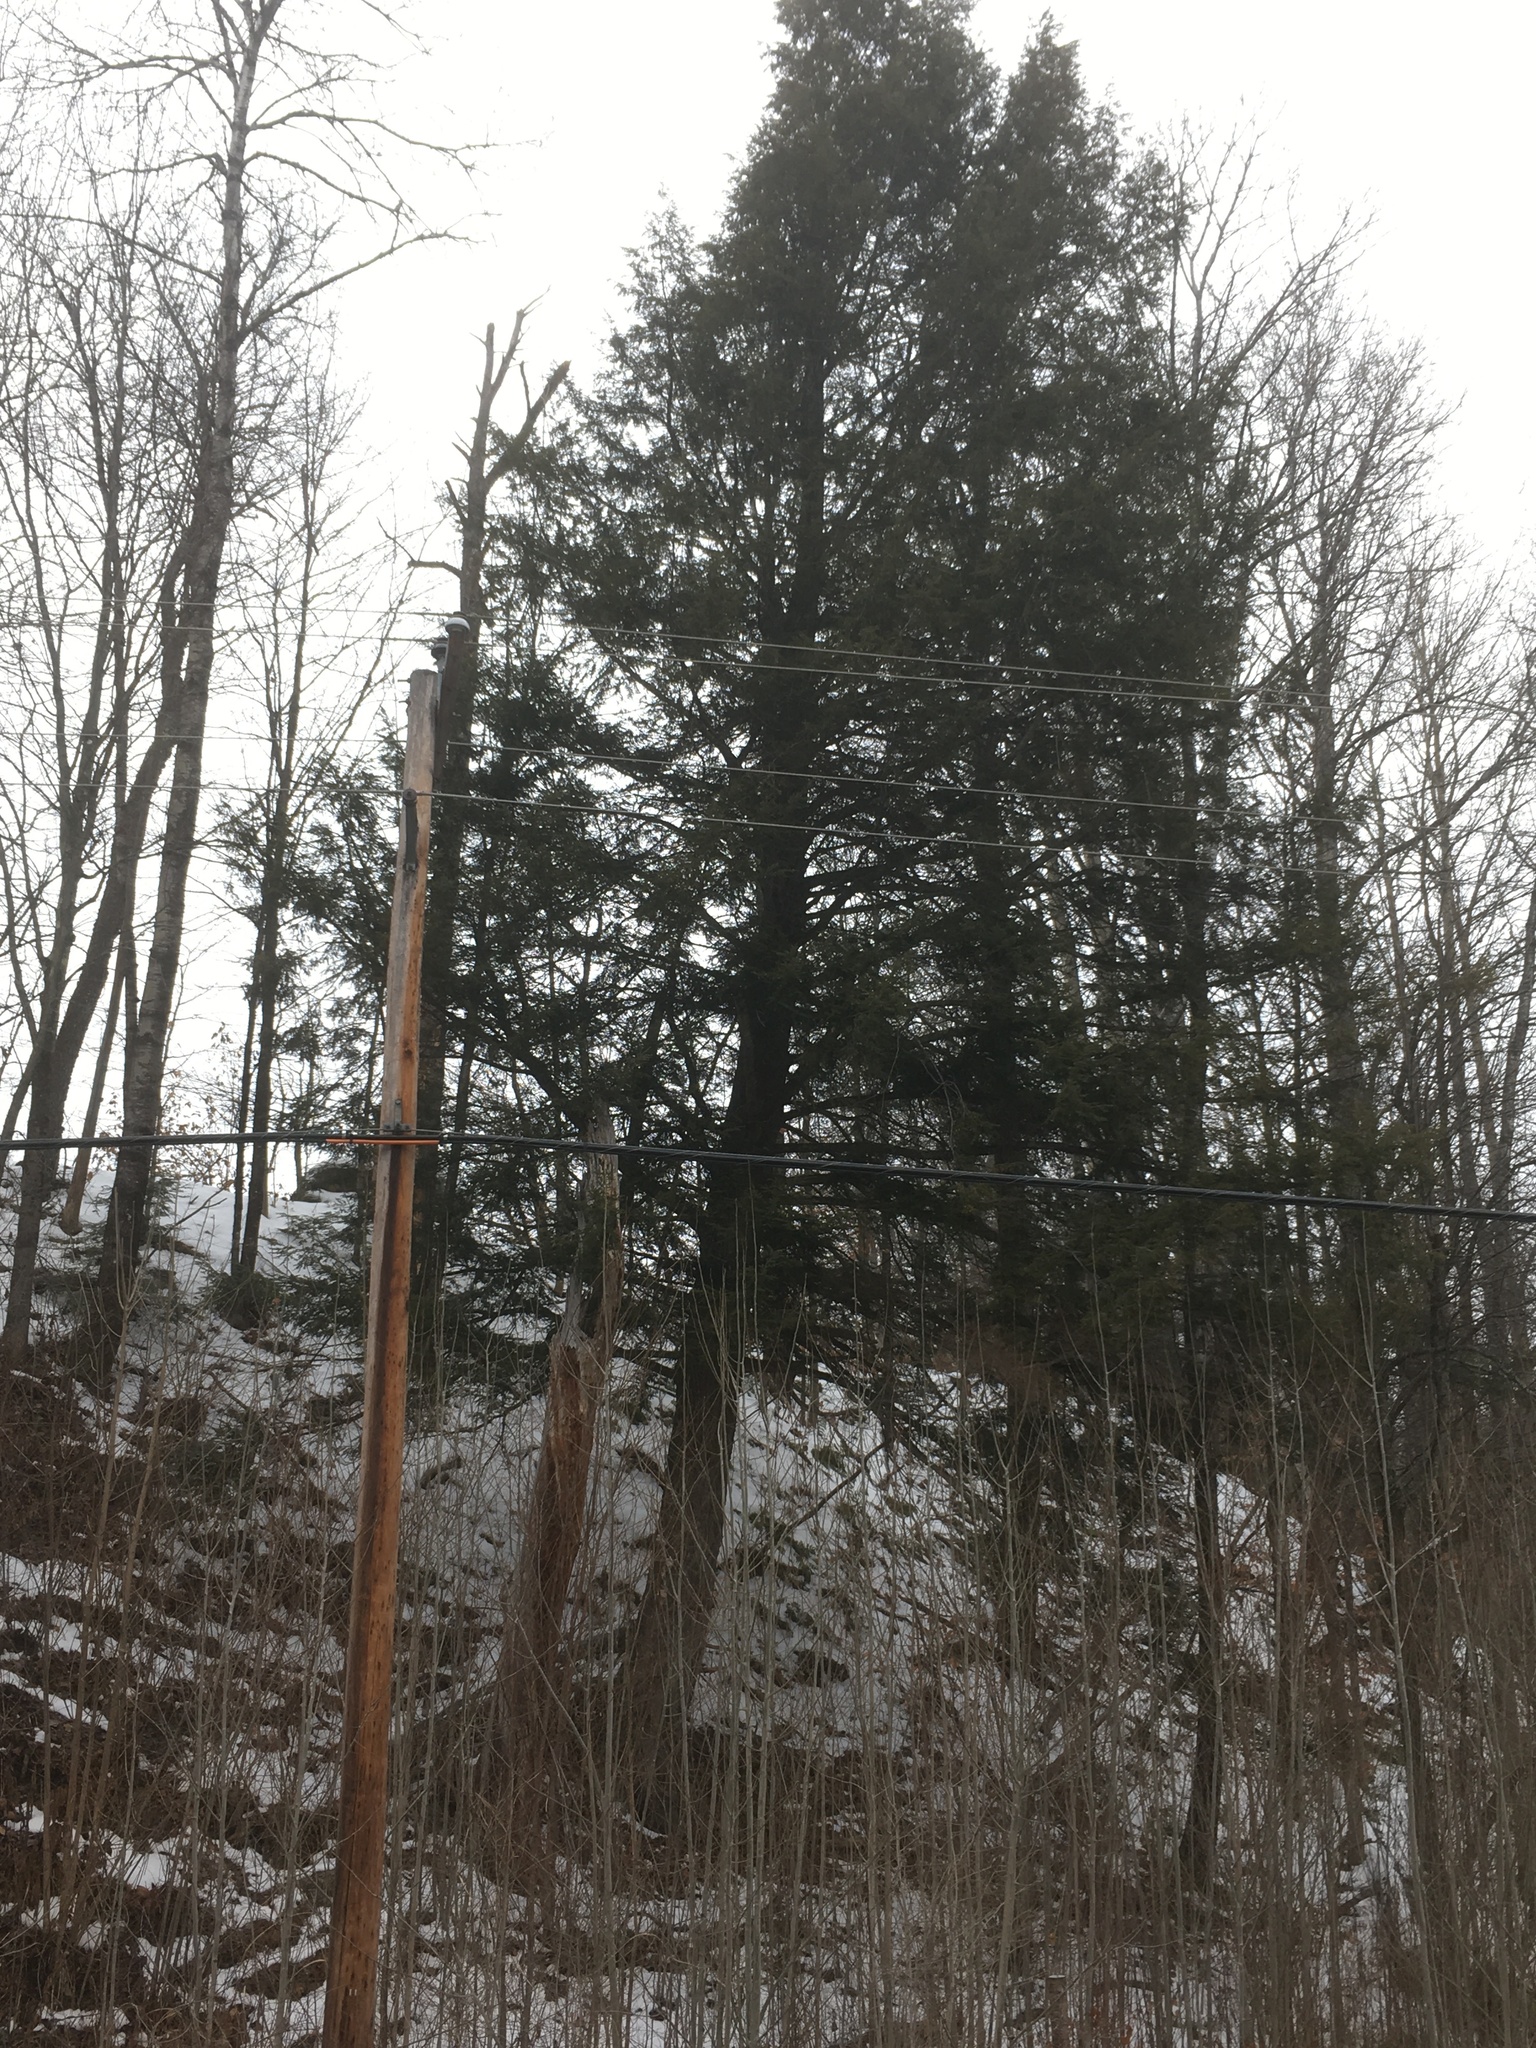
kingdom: Plantae
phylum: Tracheophyta
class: Pinopsida
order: Pinales
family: Pinaceae
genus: Tsuga
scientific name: Tsuga canadensis
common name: Eastern hemlock
